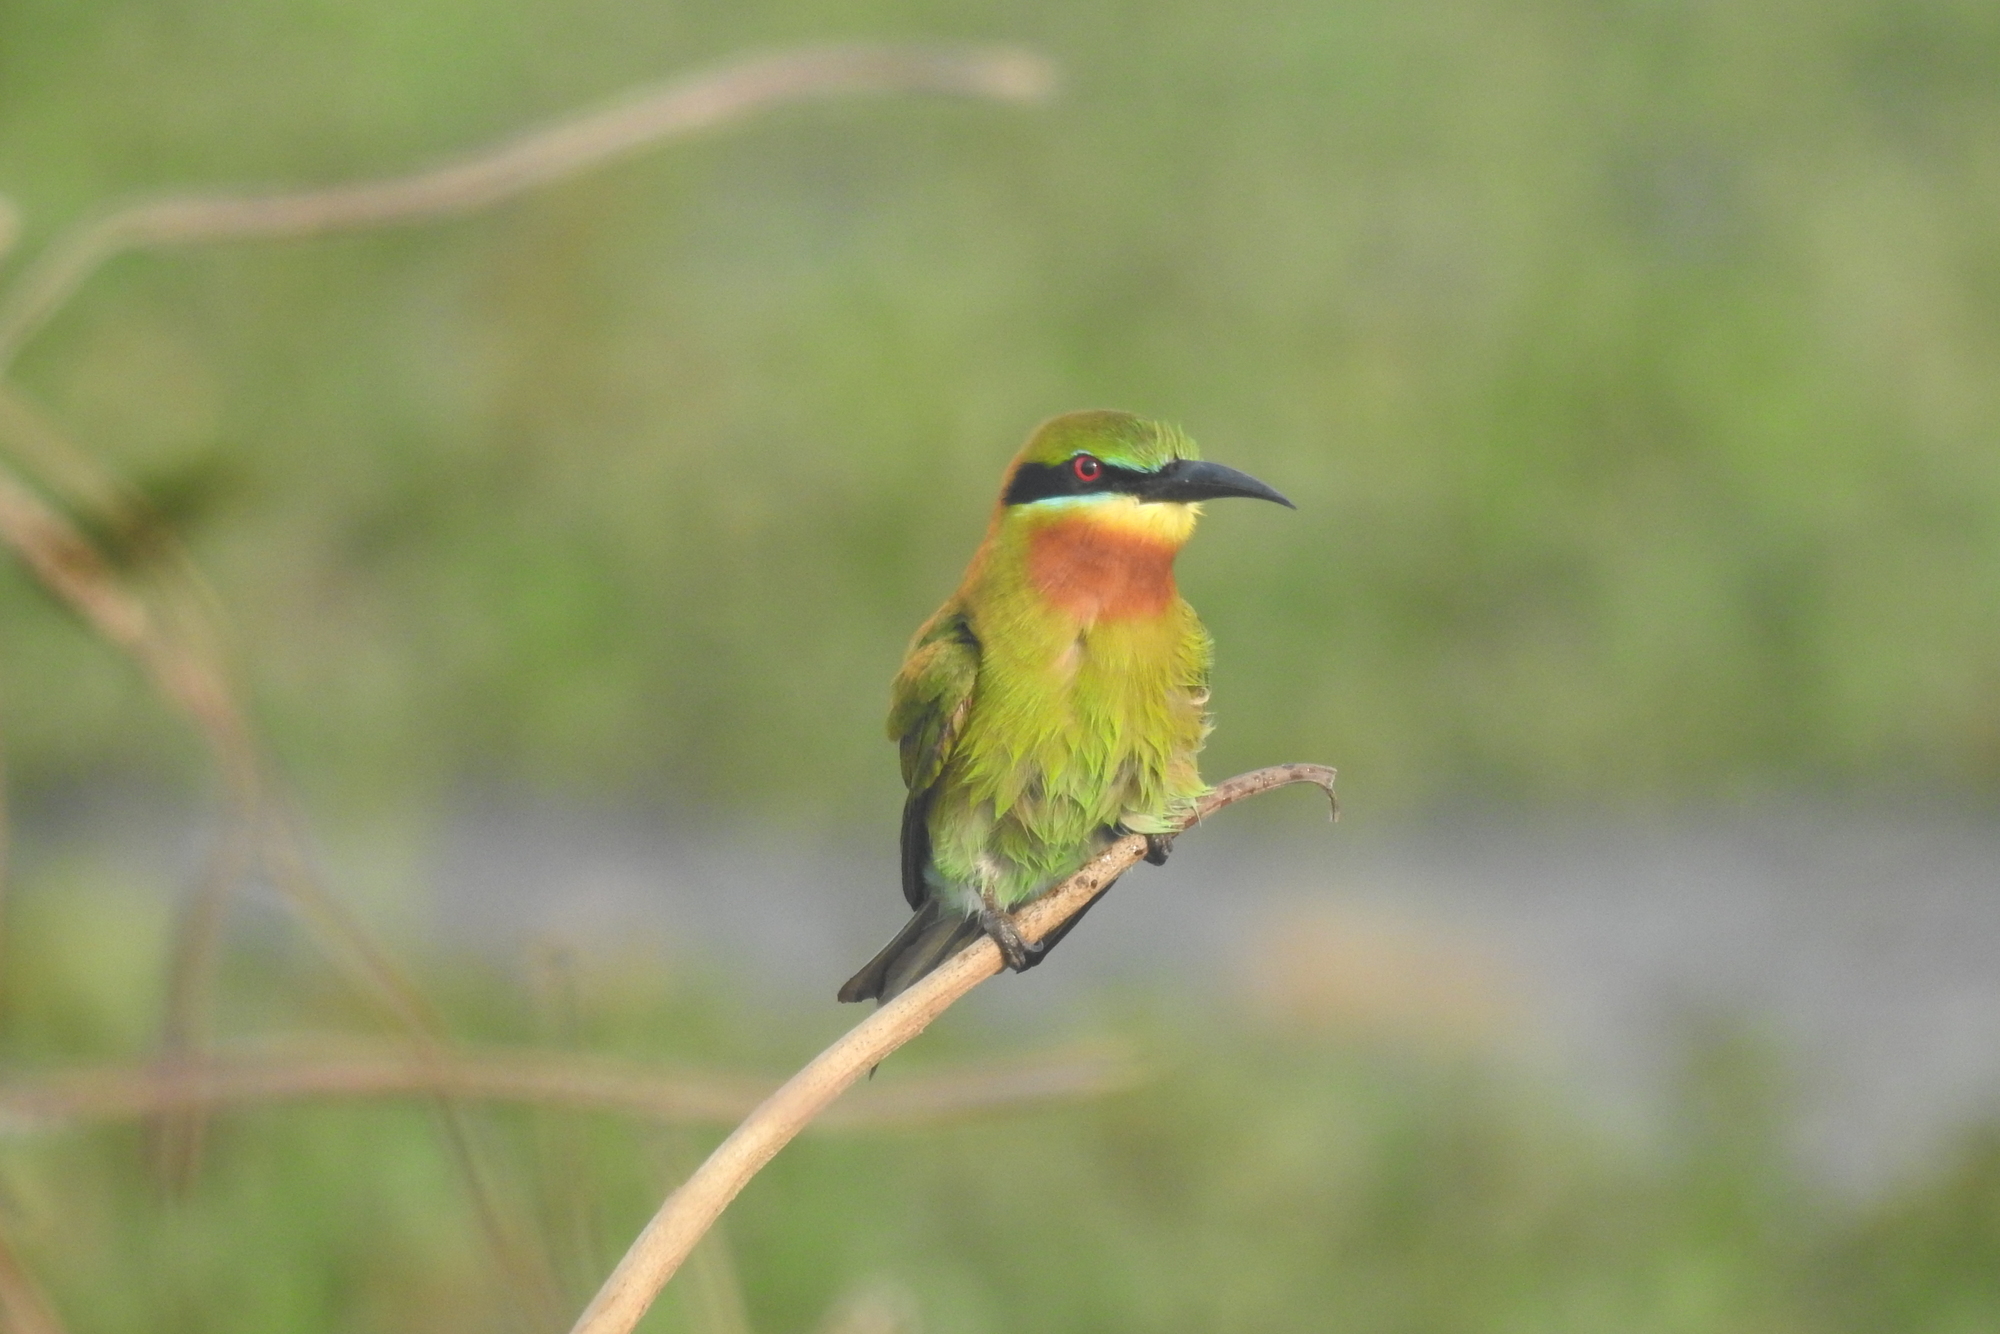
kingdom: Animalia
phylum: Chordata
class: Aves
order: Coraciiformes
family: Meropidae
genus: Merops
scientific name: Merops philippinus
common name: Blue-tailed bee-eater
